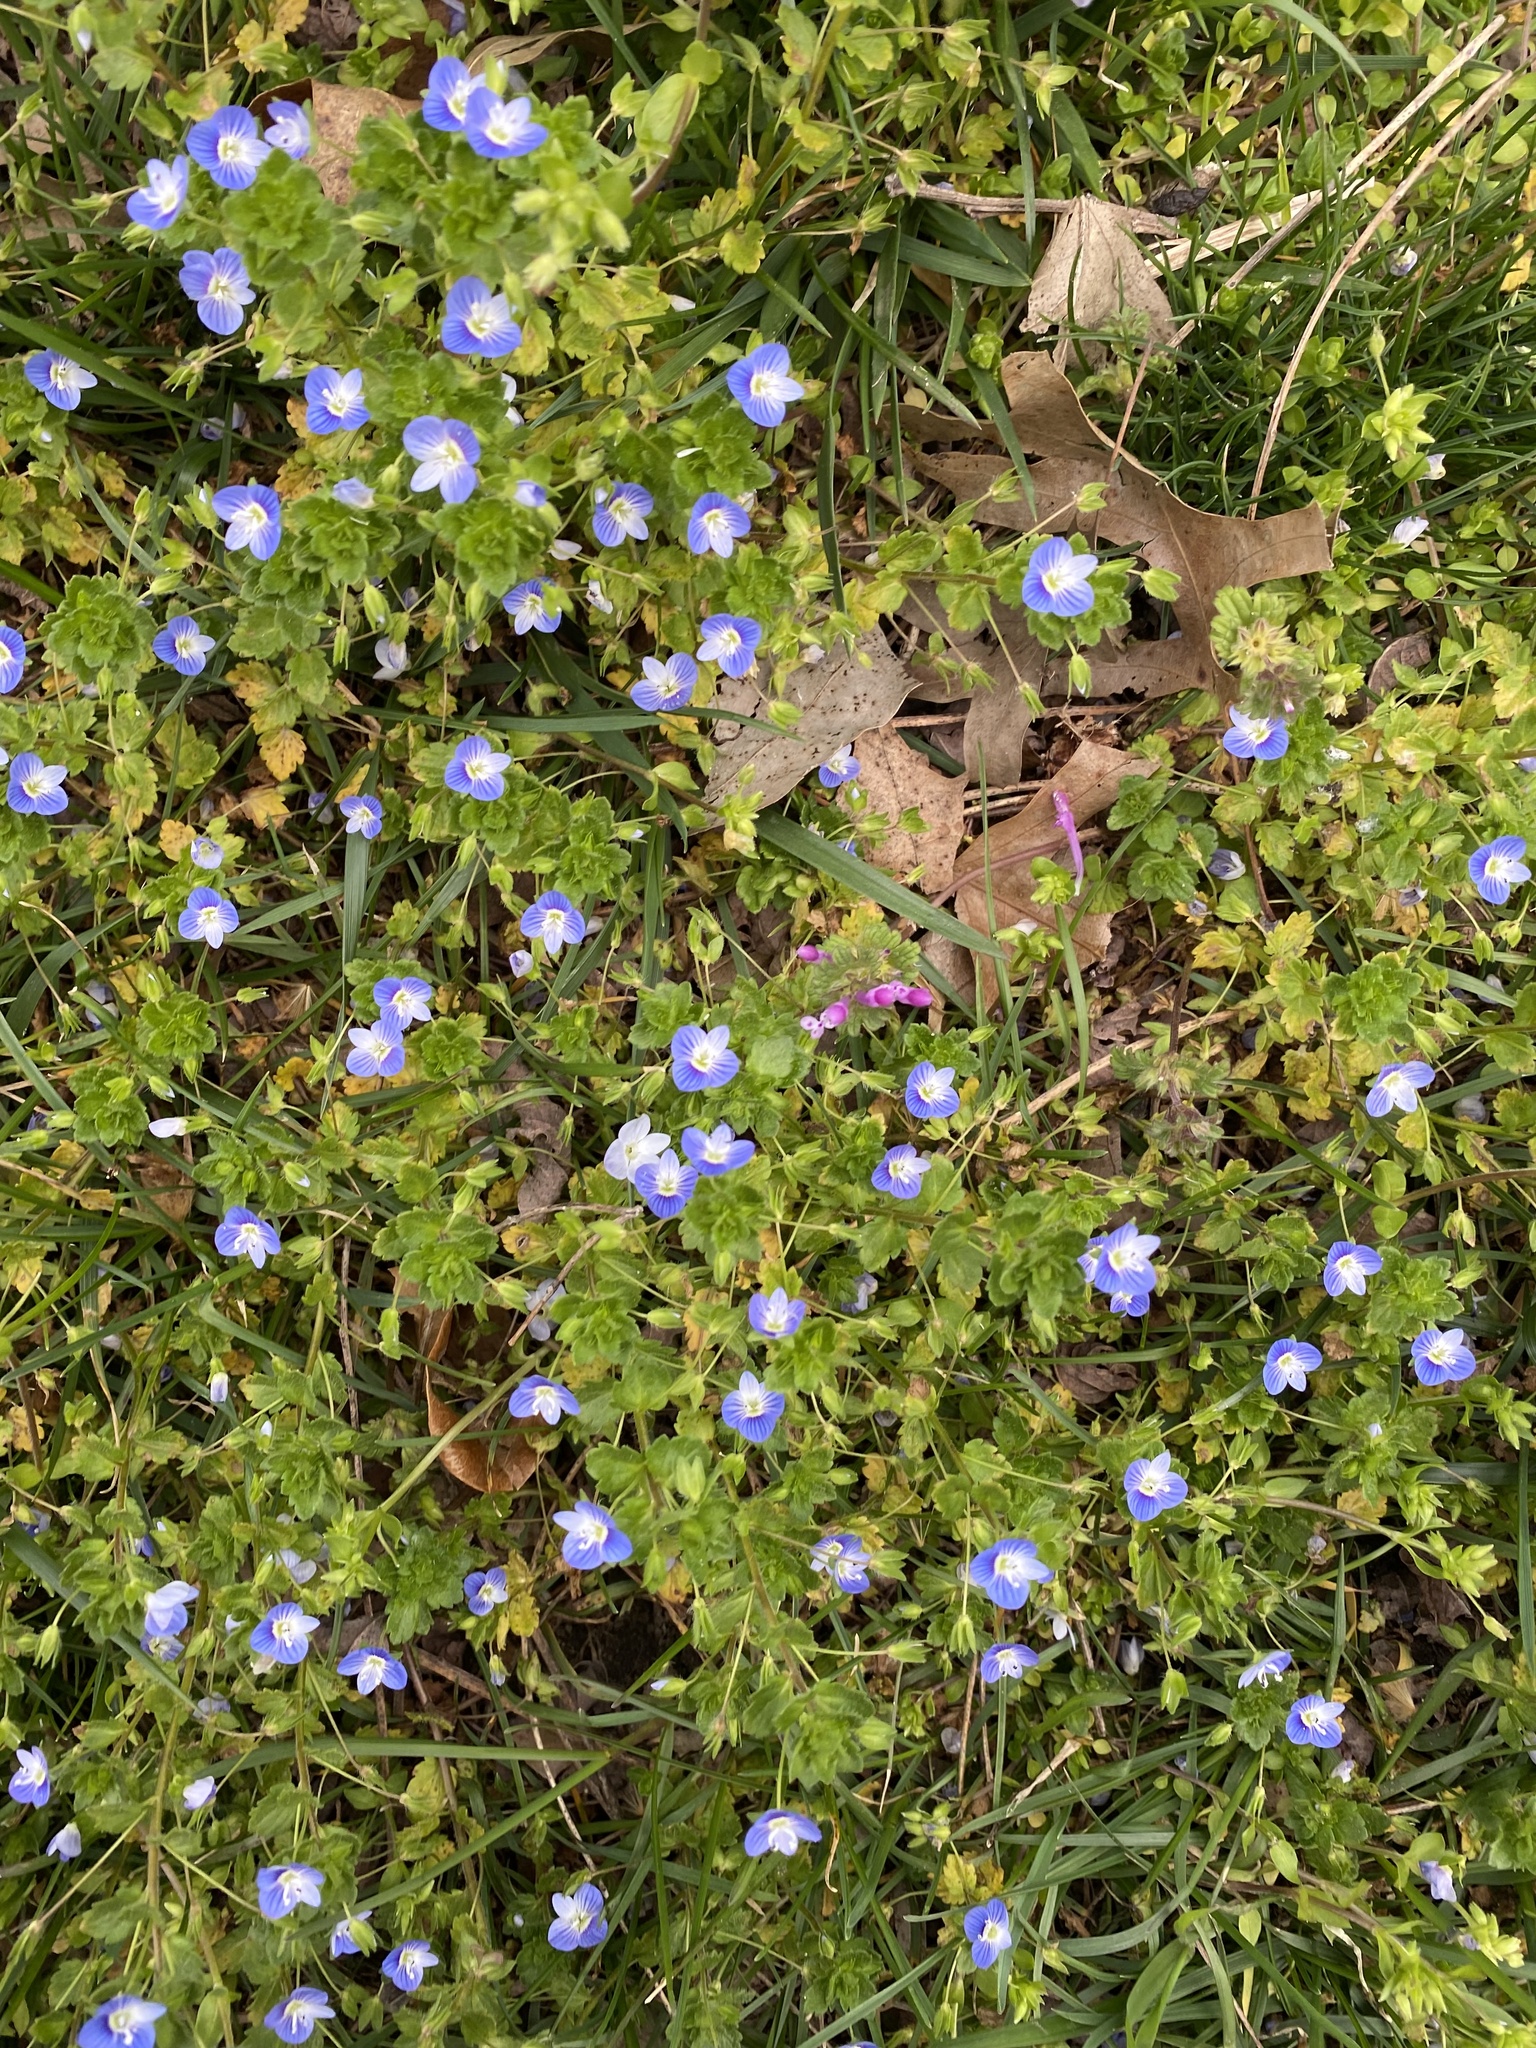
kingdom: Plantae
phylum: Tracheophyta
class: Magnoliopsida
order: Lamiales
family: Lamiaceae
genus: Lamium
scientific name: Lamium amplexicaule
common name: Henbit dead-nettle
